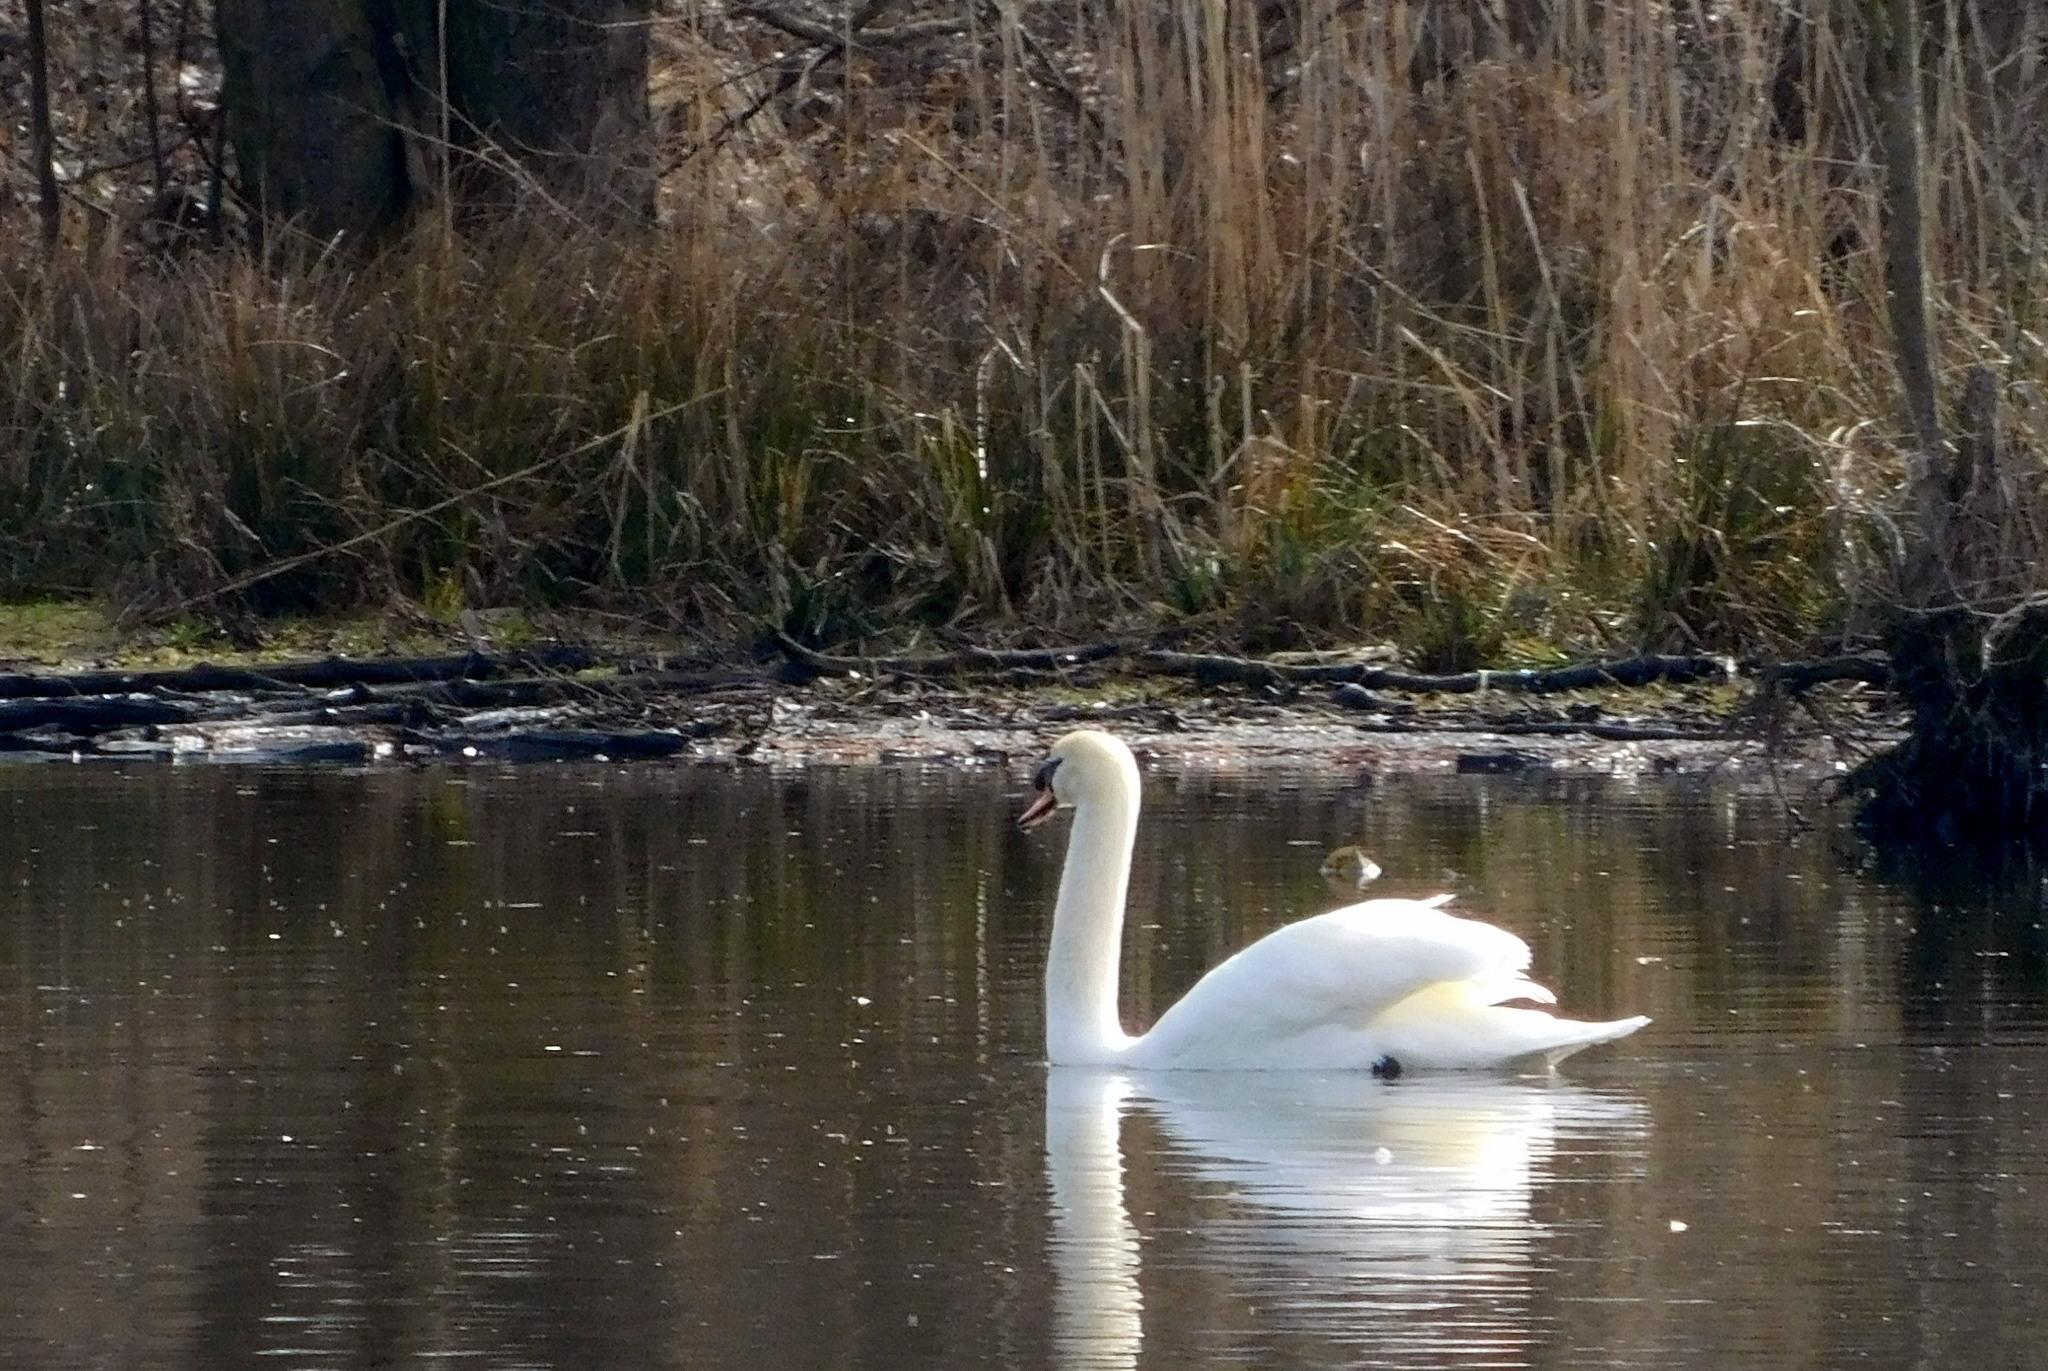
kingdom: Animalia
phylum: Chordata
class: Aves
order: Anseriformes
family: Anatidae
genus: Cygnus
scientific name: Cygnus olor
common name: Mute swan
